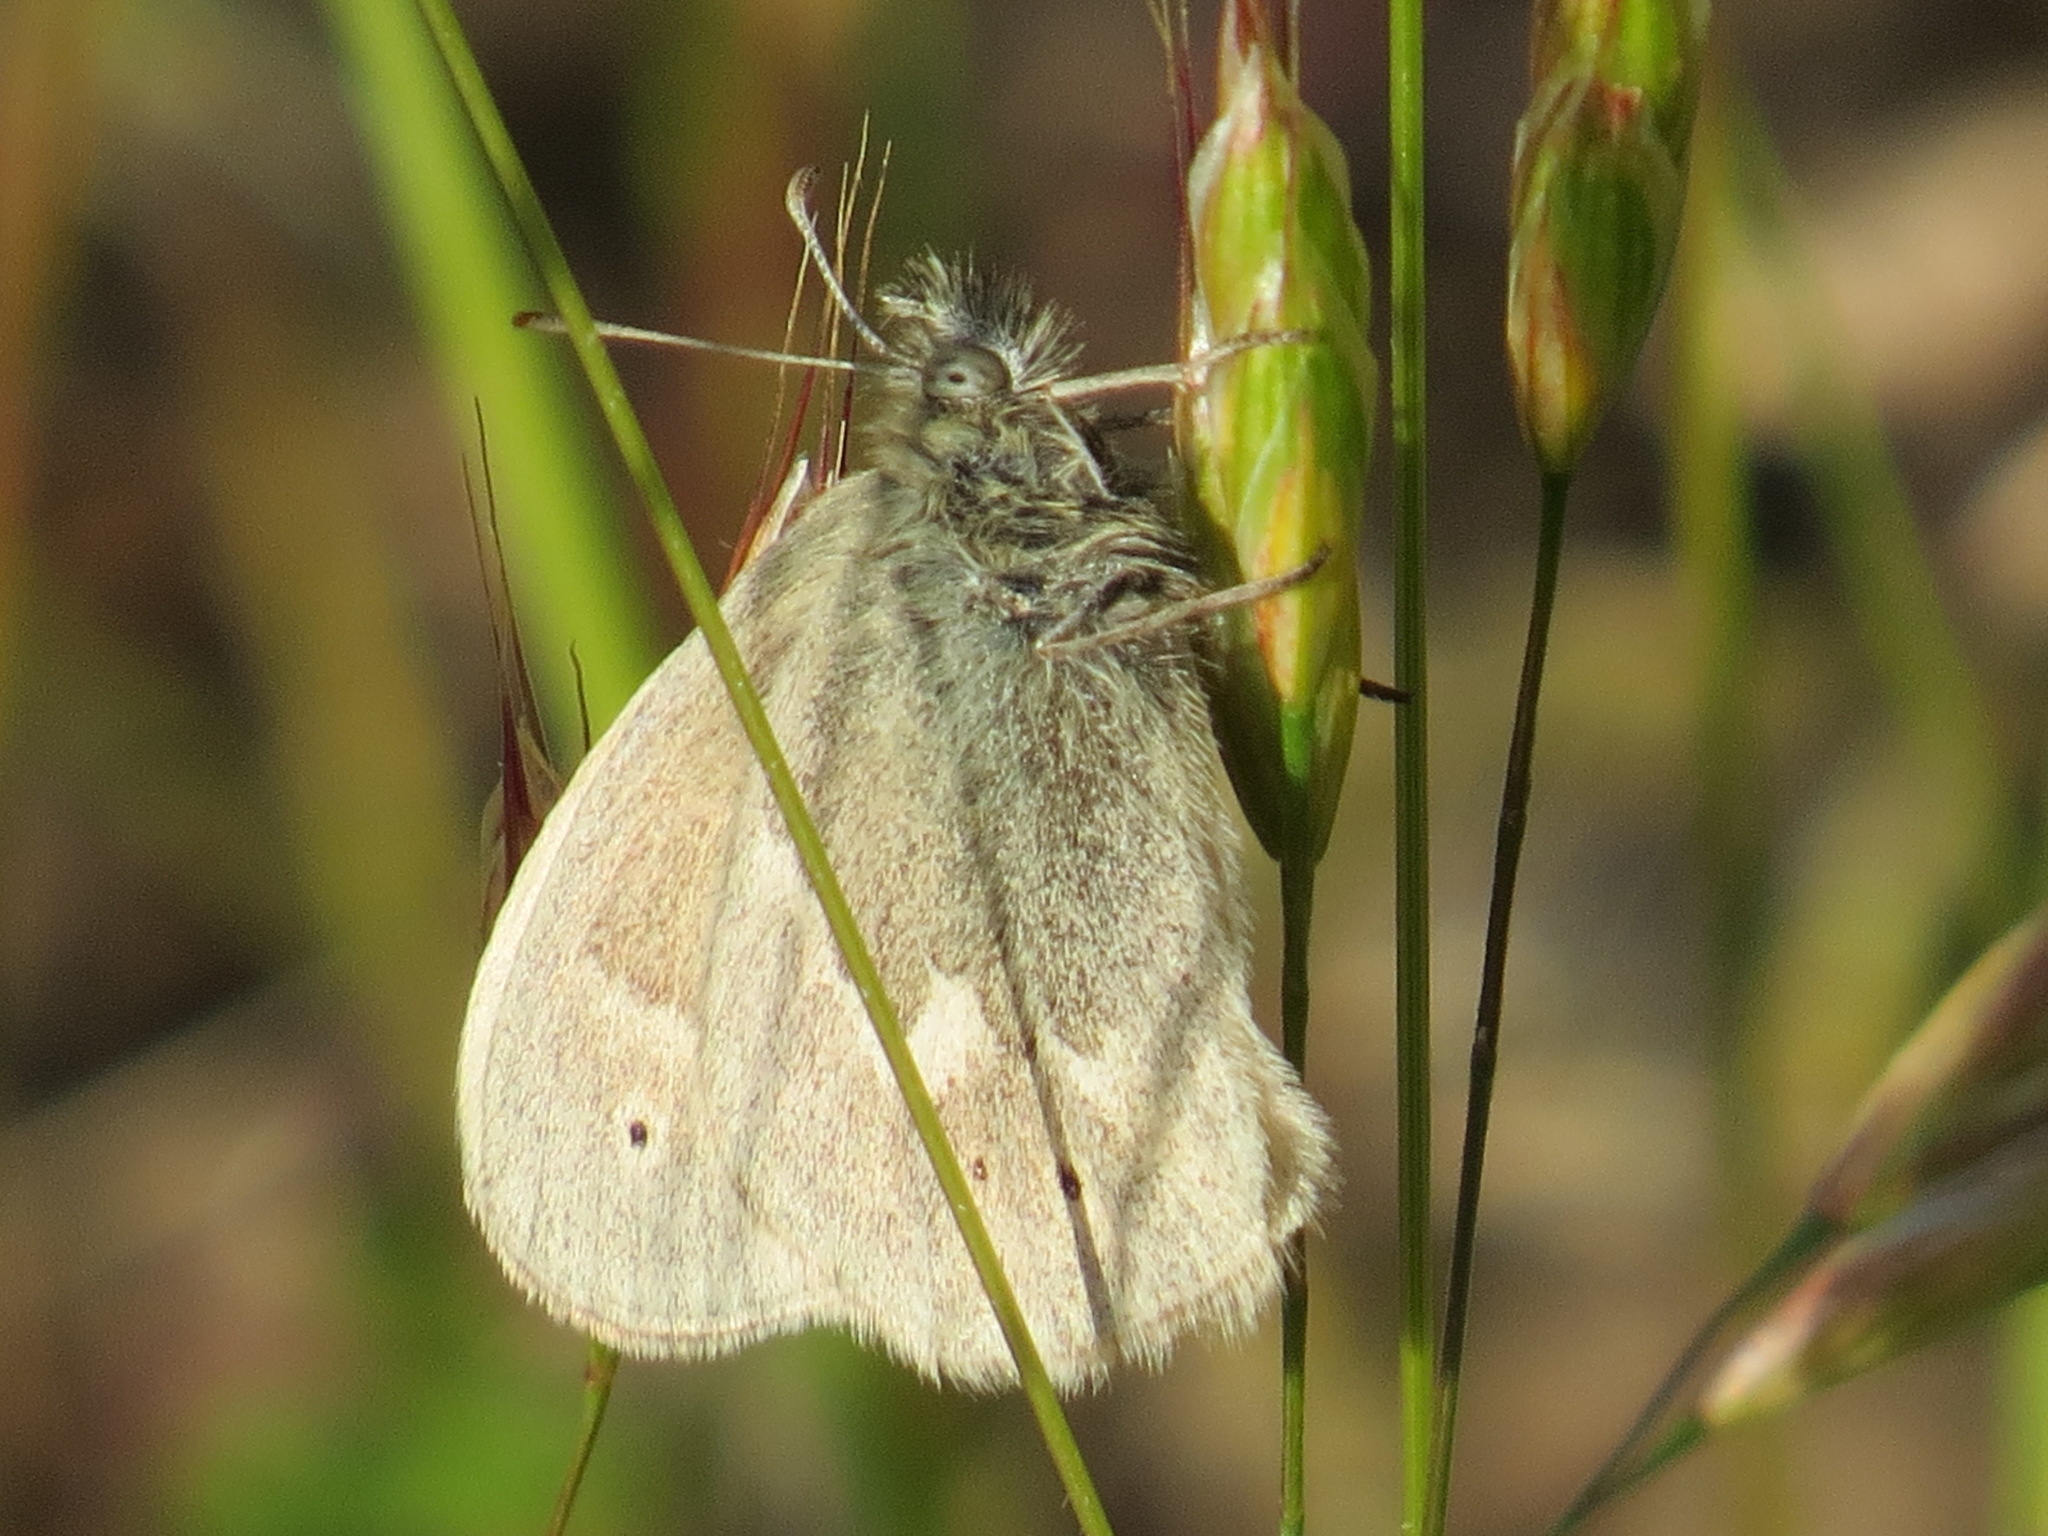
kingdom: Animalia
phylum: Arthropoda
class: Insecta
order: Lepidoptera
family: Nymphalidae
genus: Coenonympha
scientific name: Coenonympha california
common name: Common ringlet
